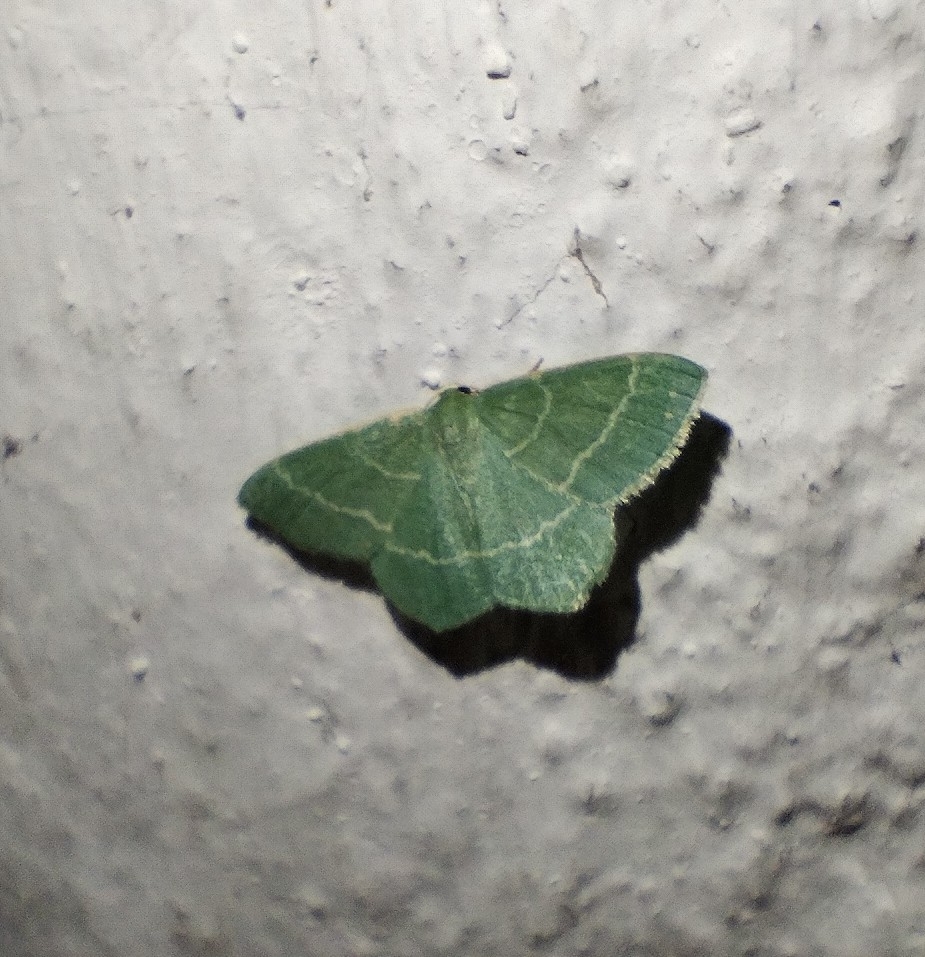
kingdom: Animalia
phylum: Arthropoda
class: Insecta
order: Lepidoptera
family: Geometridae
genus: Chlorissa
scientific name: Chlorissa
